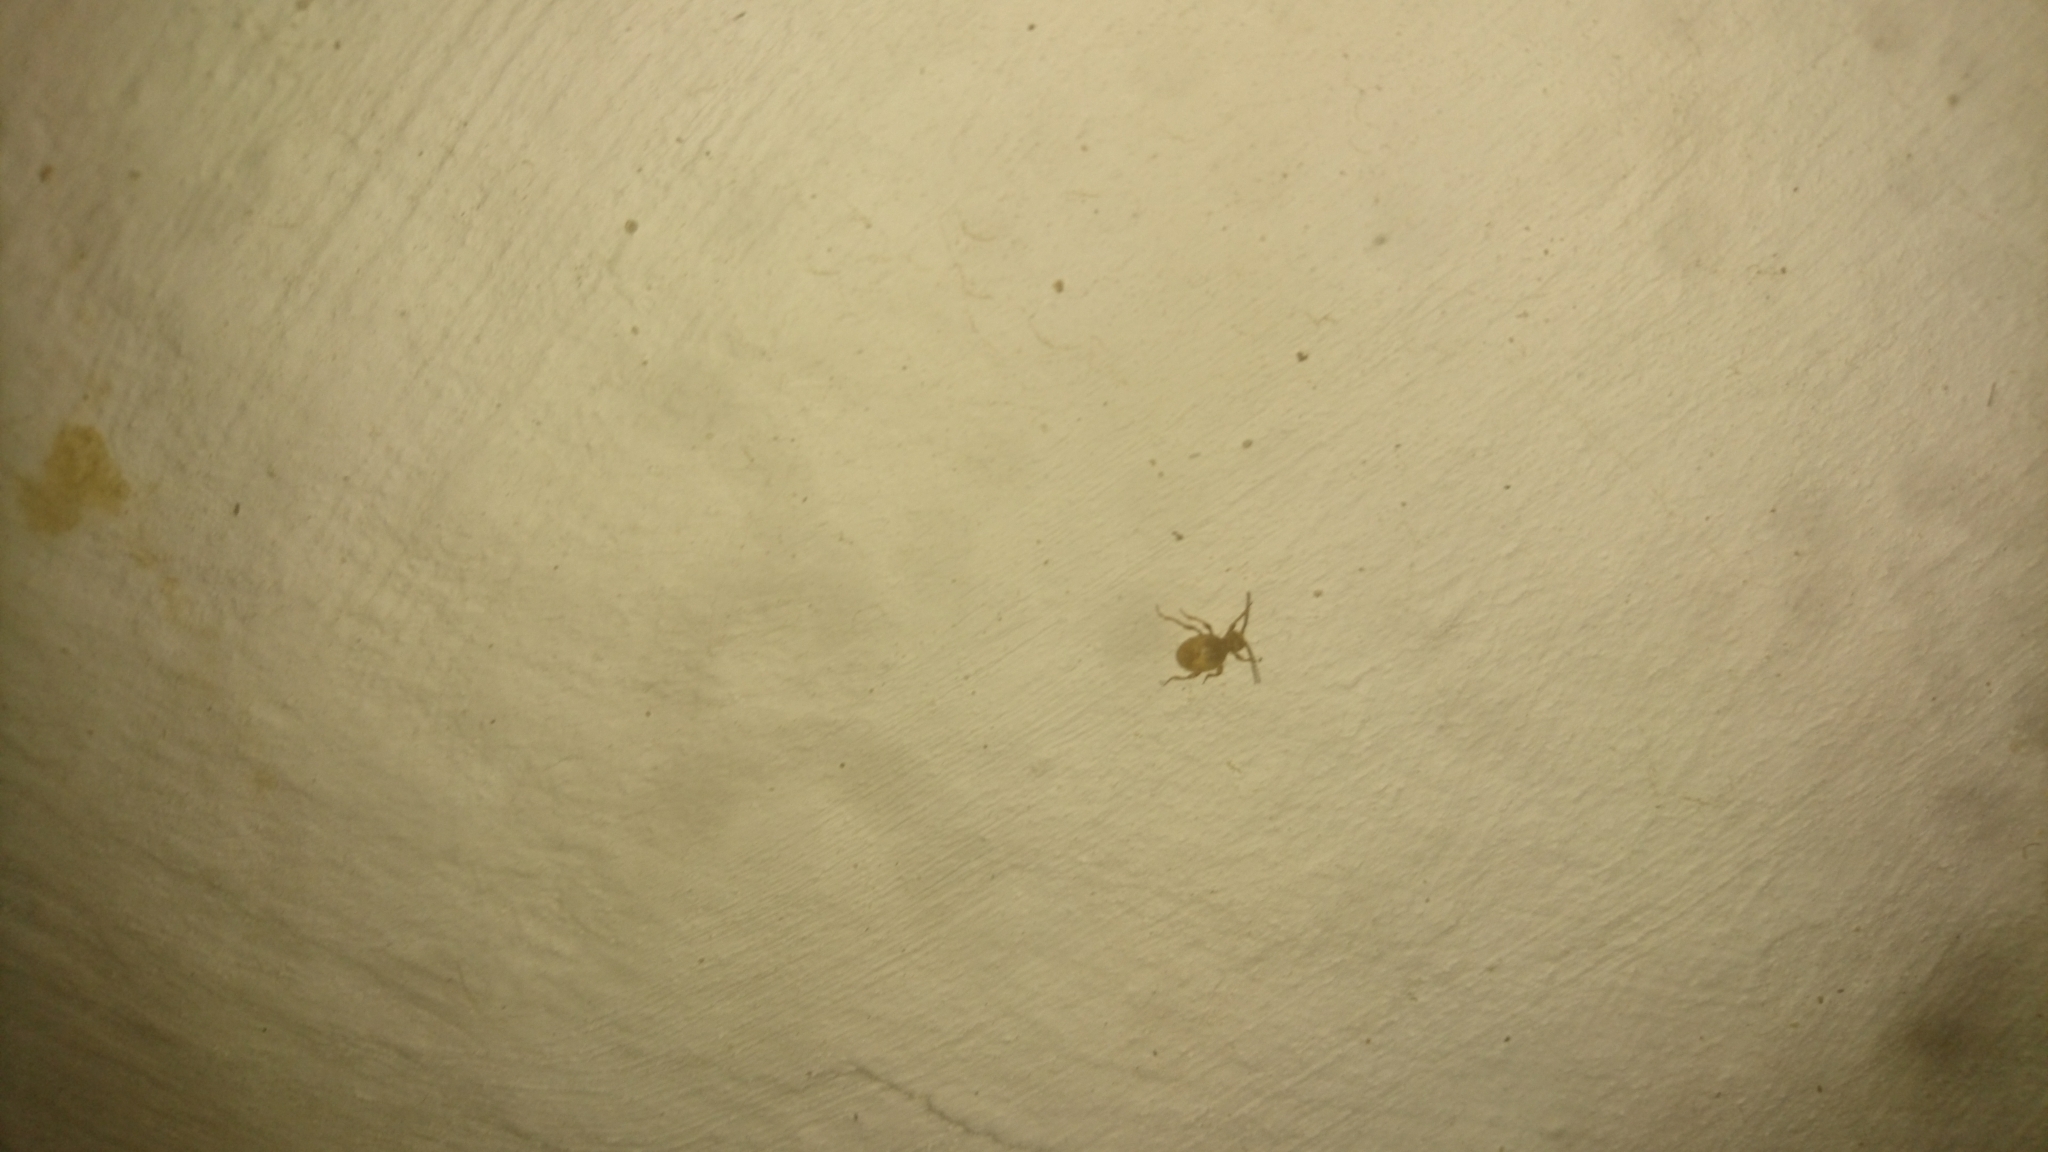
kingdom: Animalia
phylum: Arthropoda
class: Insecta
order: Coleoptera
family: Ptinidae
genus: Niptus
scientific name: Niptus hololeucus
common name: Golden spider beetle
